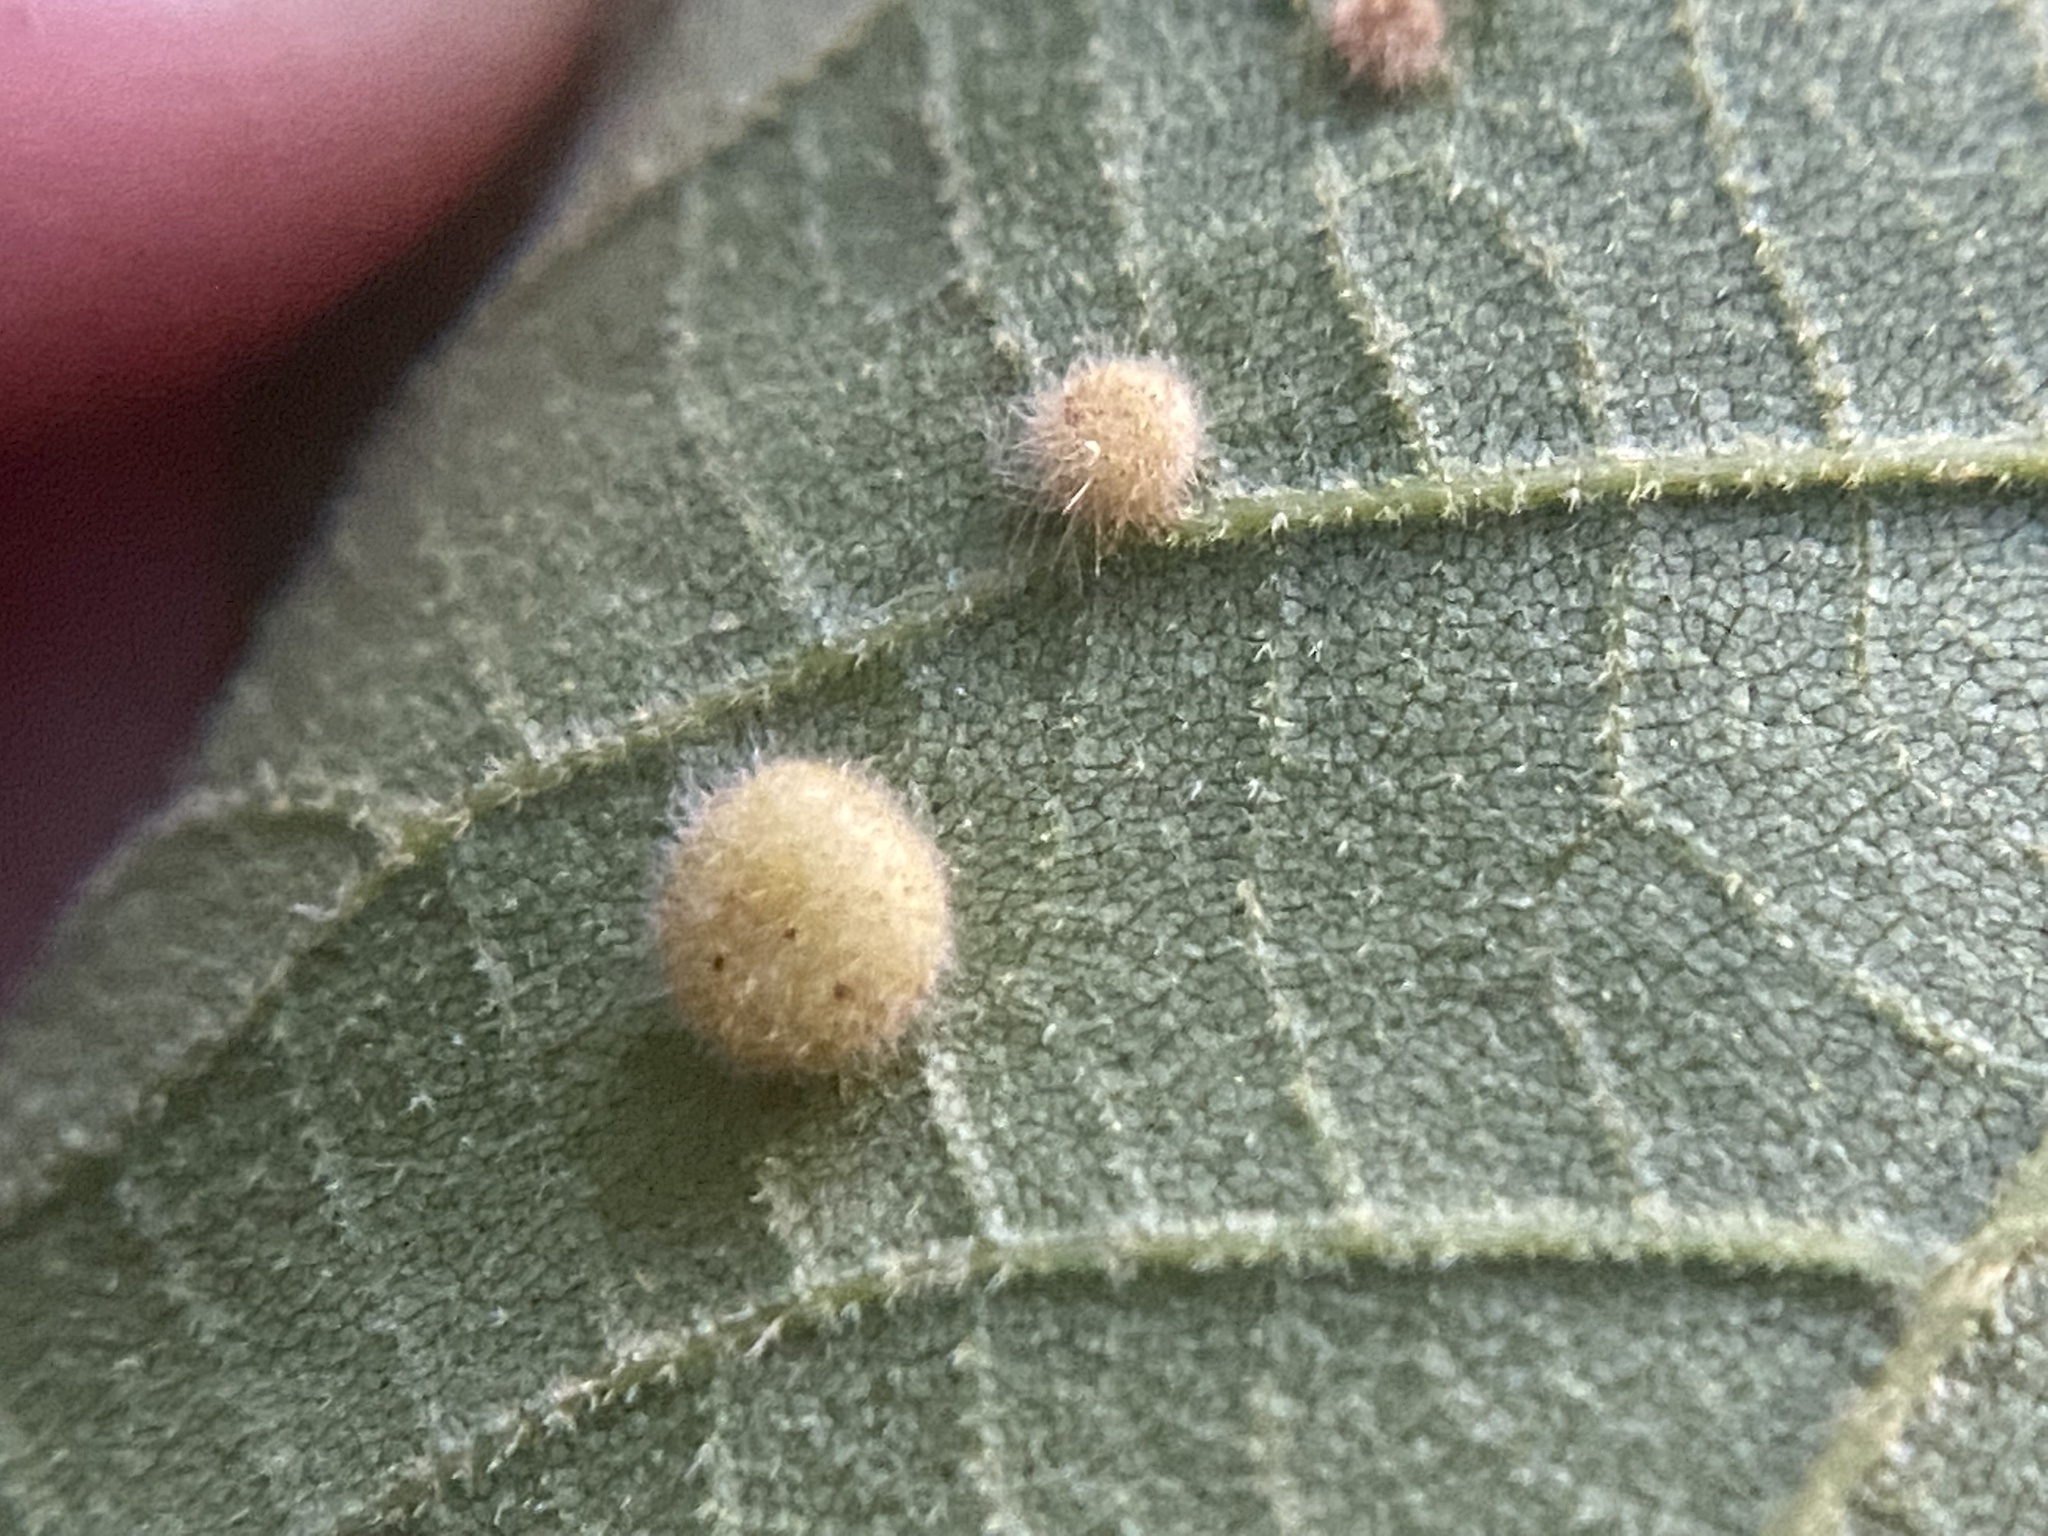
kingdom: Animalia
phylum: Arthropoda
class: Insecta
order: Diptera
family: Cecidomyiidae
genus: Caryomyia
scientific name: Caryomyia thompsoni
